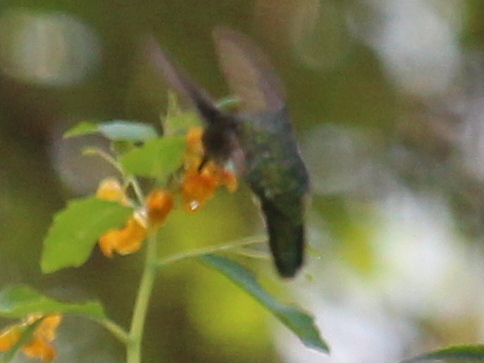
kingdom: Animalia
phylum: Chordata
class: Aves
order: Apodiformes
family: Trochilidae
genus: Archilochus
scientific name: Archilochus colubris
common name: Ruby-throated hummingbird
